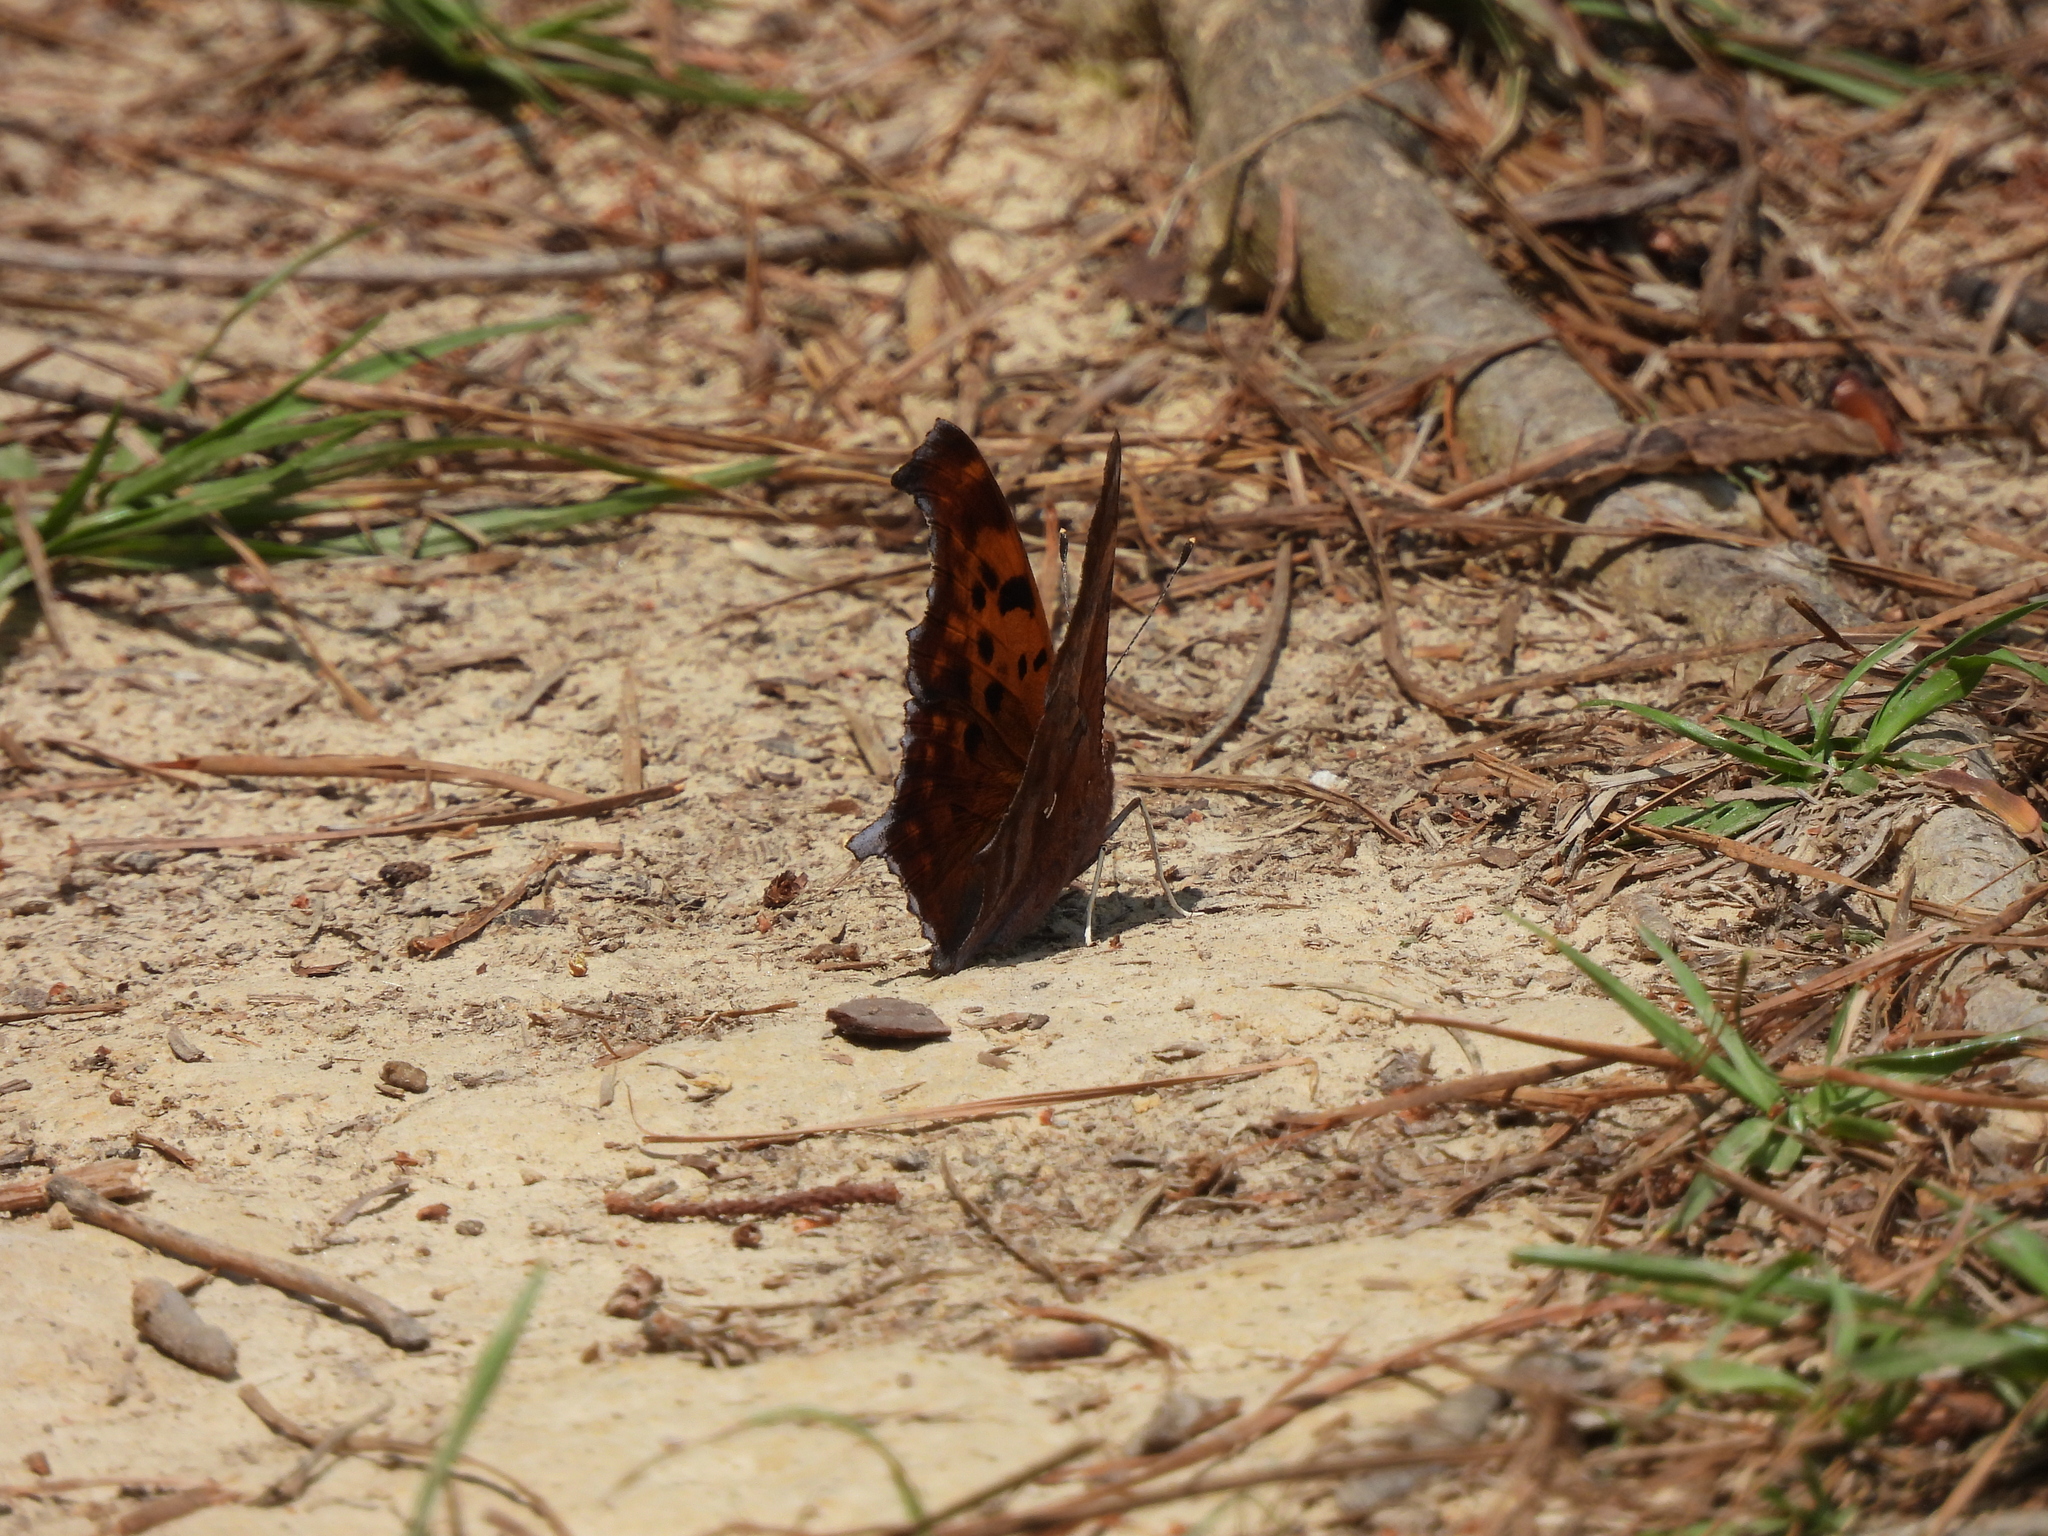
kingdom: Animalia
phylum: Arthropoda
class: Insecta
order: Lepidoptera
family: Nymphalidae
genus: Polygonia
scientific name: Polygonia interrogationis
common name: Question mark
